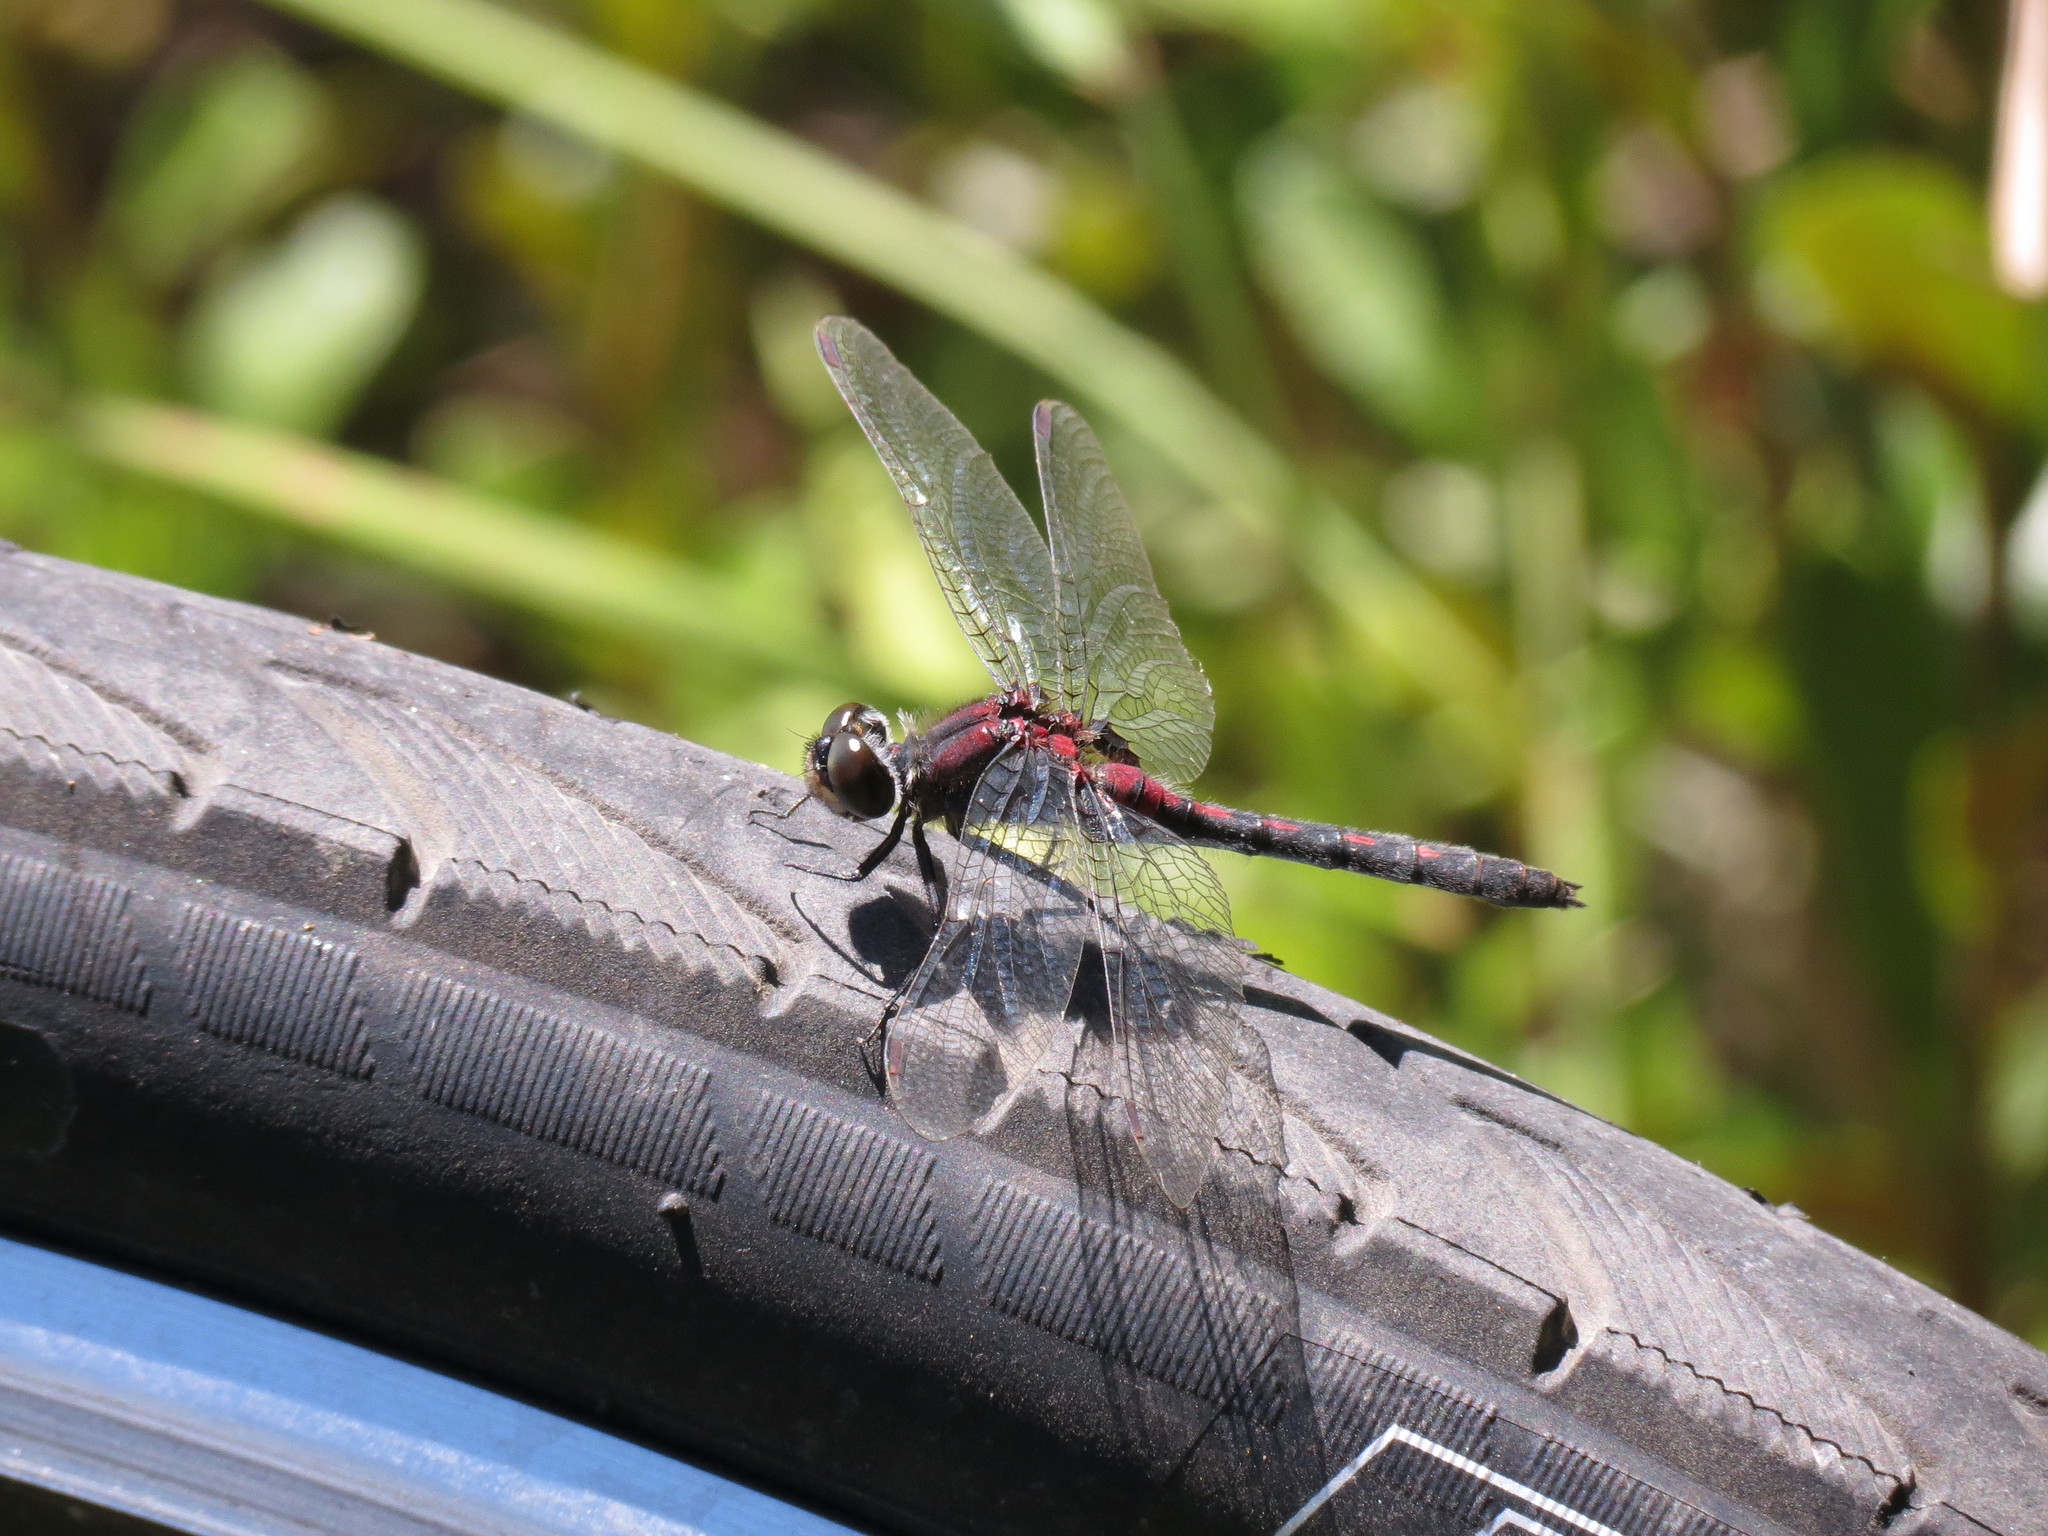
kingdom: Animalia
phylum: Arthropoda
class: Insecta
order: Odonata
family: Libellulidae
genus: Leucorrhinia
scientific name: Leucorrhinia glacialis
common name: Crimson-ringed whiteface
